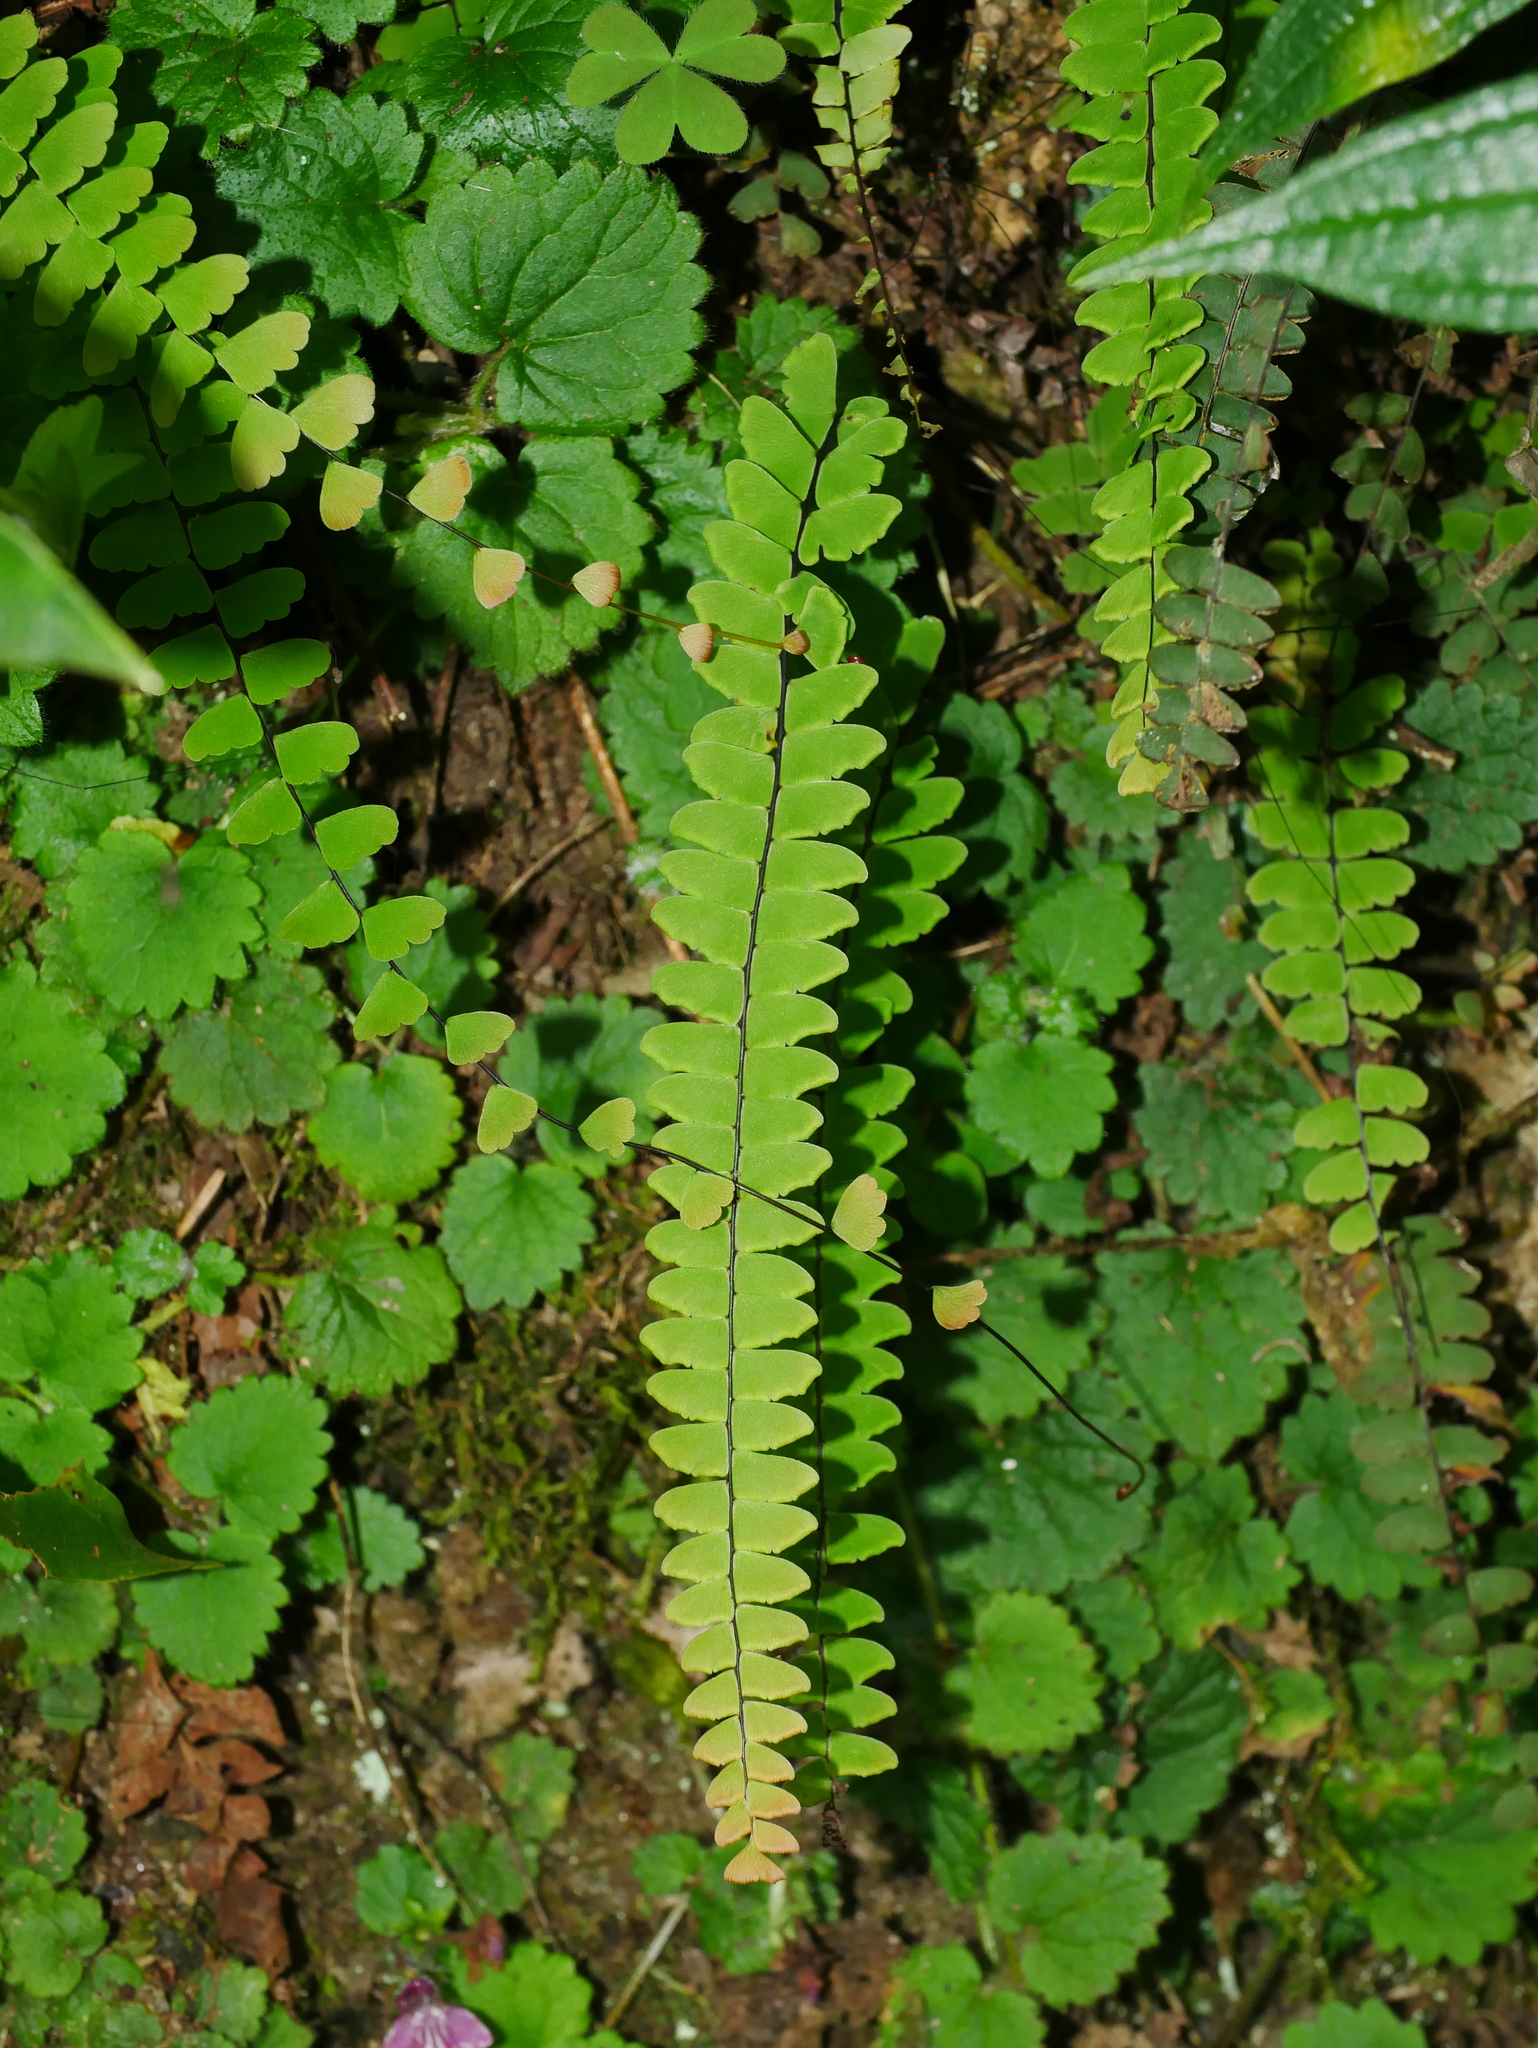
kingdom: Plantae
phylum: Tracheophyta
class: Polypodiopsida
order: Polypodiales
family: Pteridaceae
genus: Adiantum
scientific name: Adiantum edgeworthii
